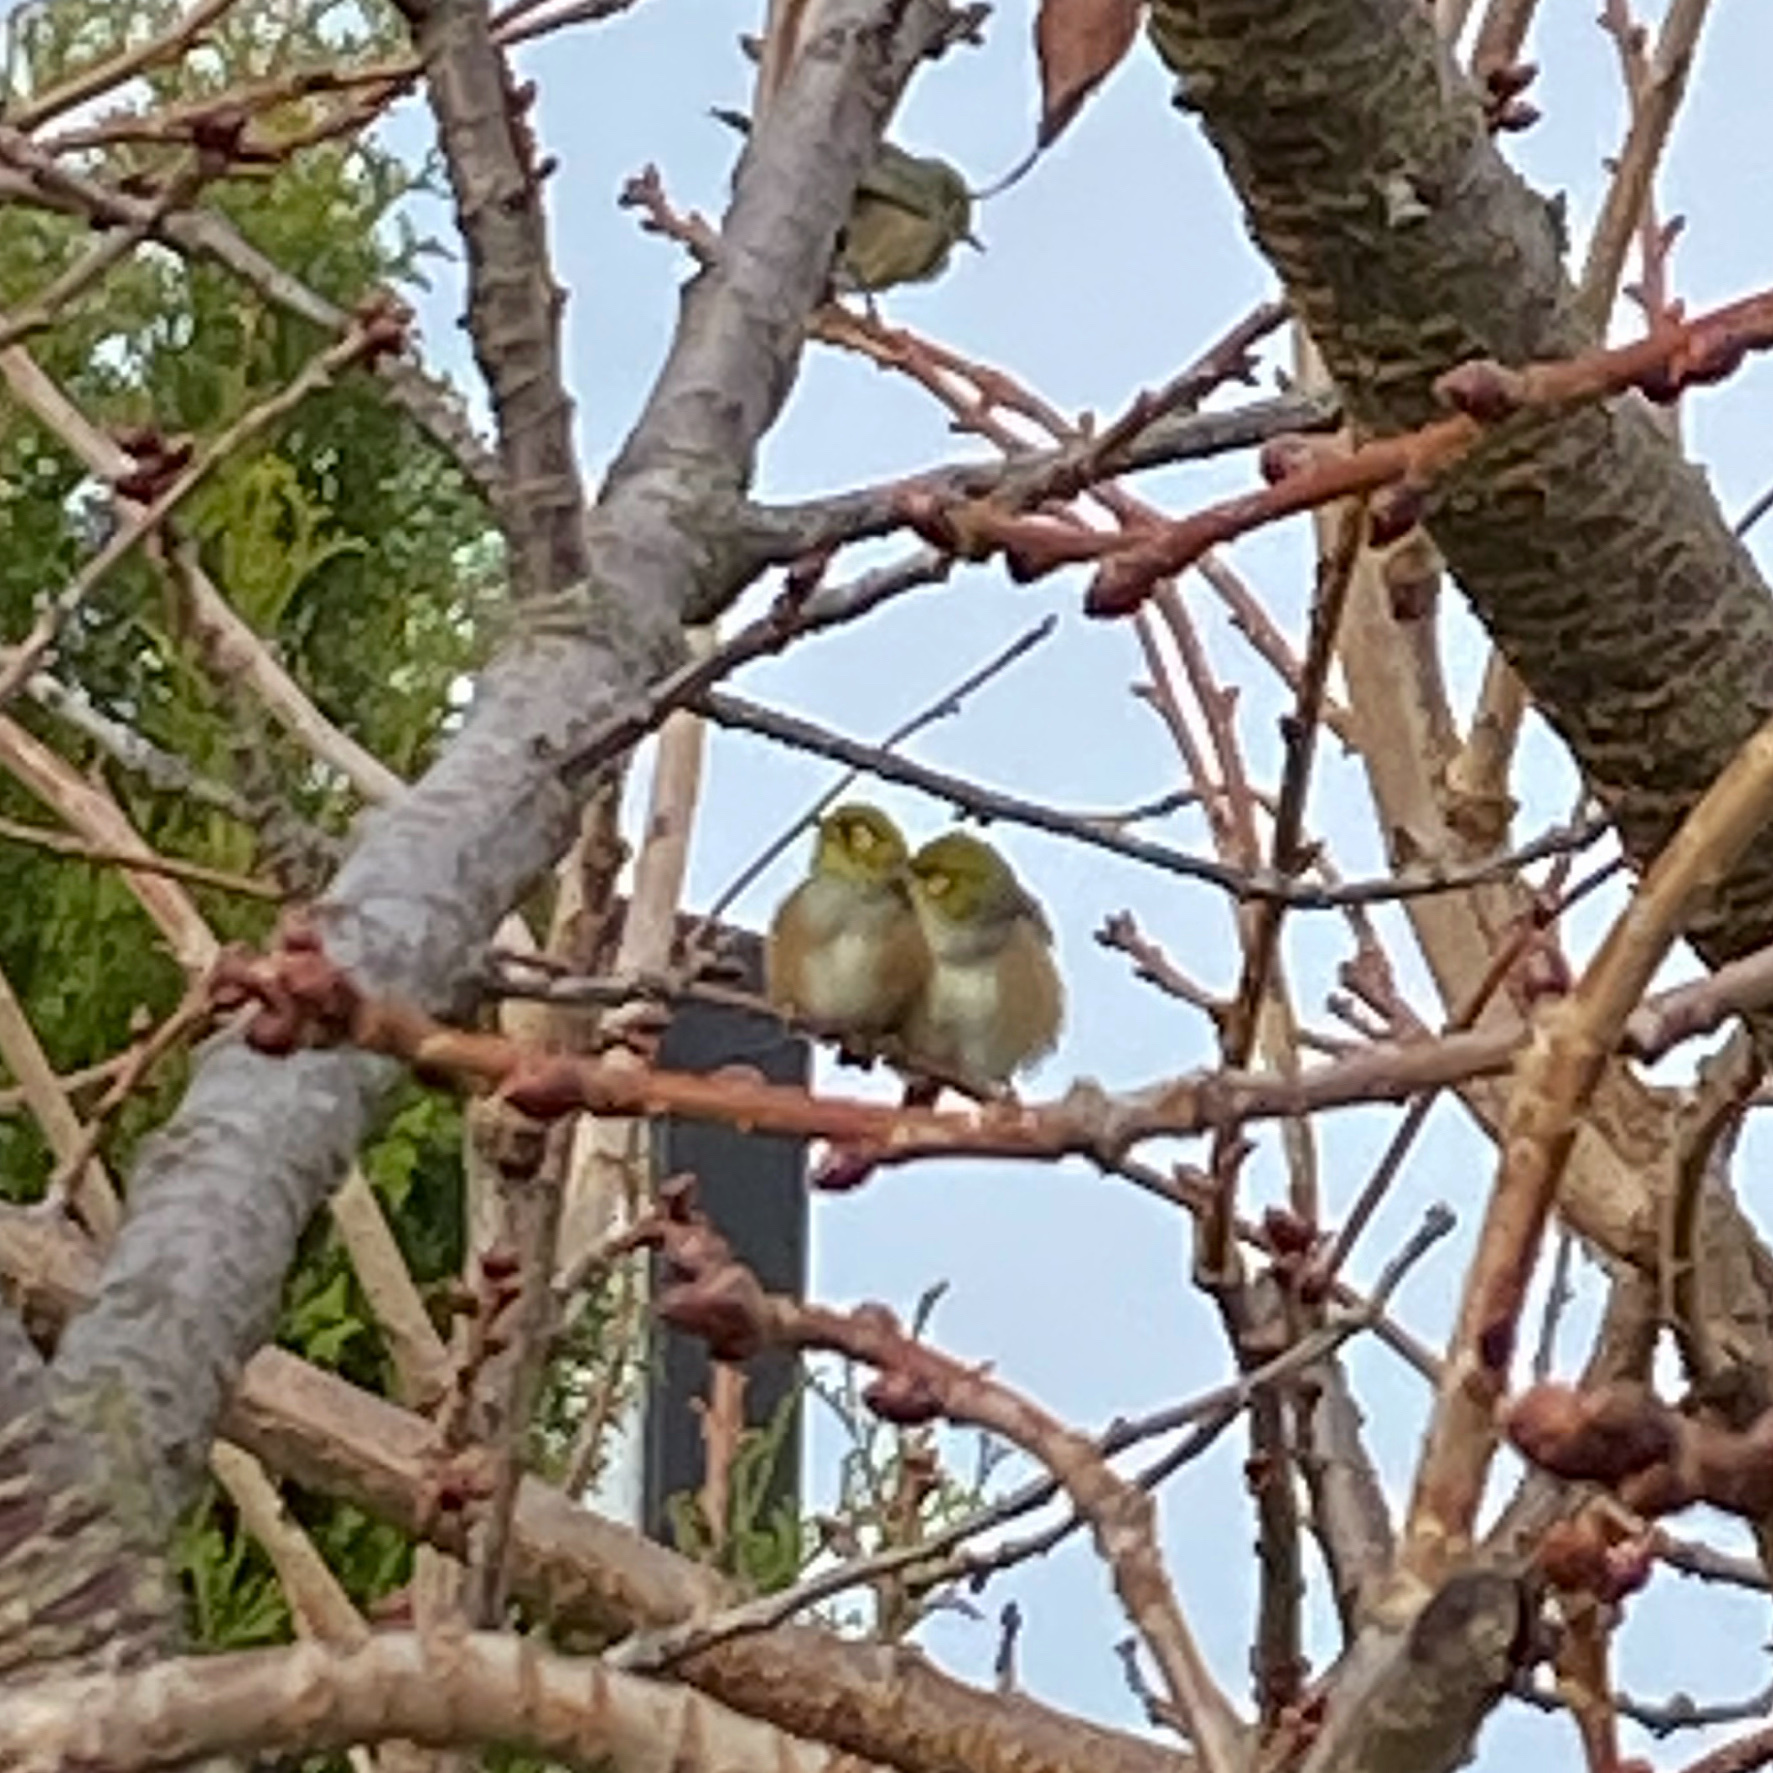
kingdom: Animalia
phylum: Chordata
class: Aves
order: Passeriformes
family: Zosteropidae
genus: Zosterops
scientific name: Zosterops lateralis
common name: Silvereye
